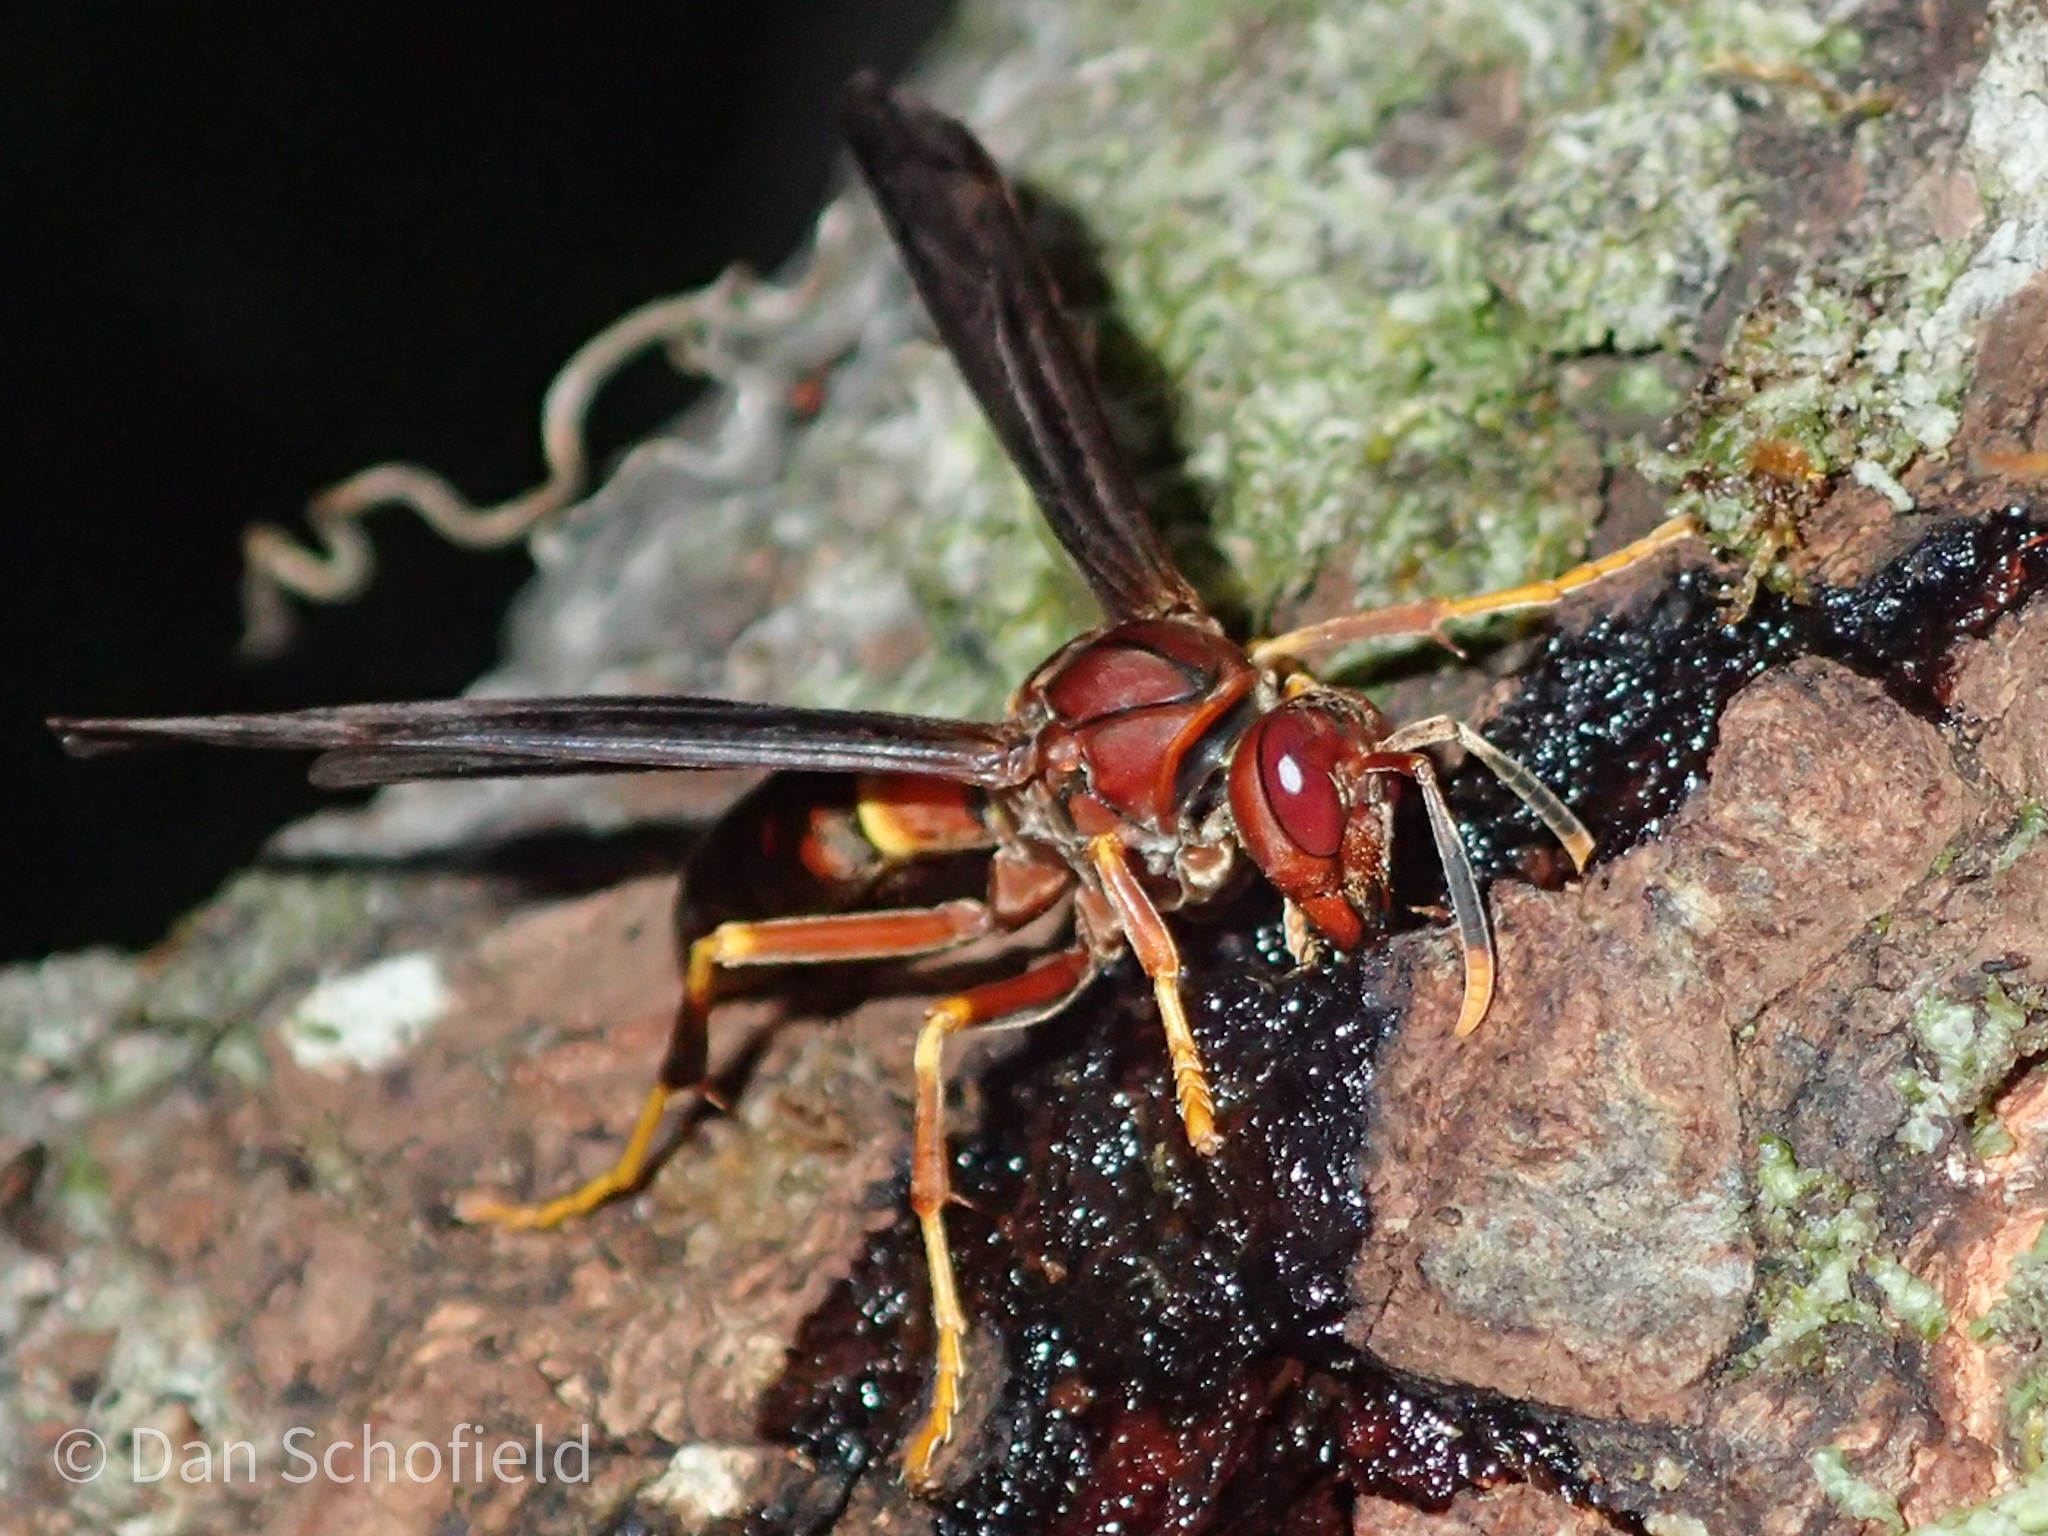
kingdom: Animalia
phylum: Arthropoda
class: Insecta
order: Hymenoptera
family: Eumenidae
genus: Polistes
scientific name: Polistes annularis
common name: Ringed paper wasp
